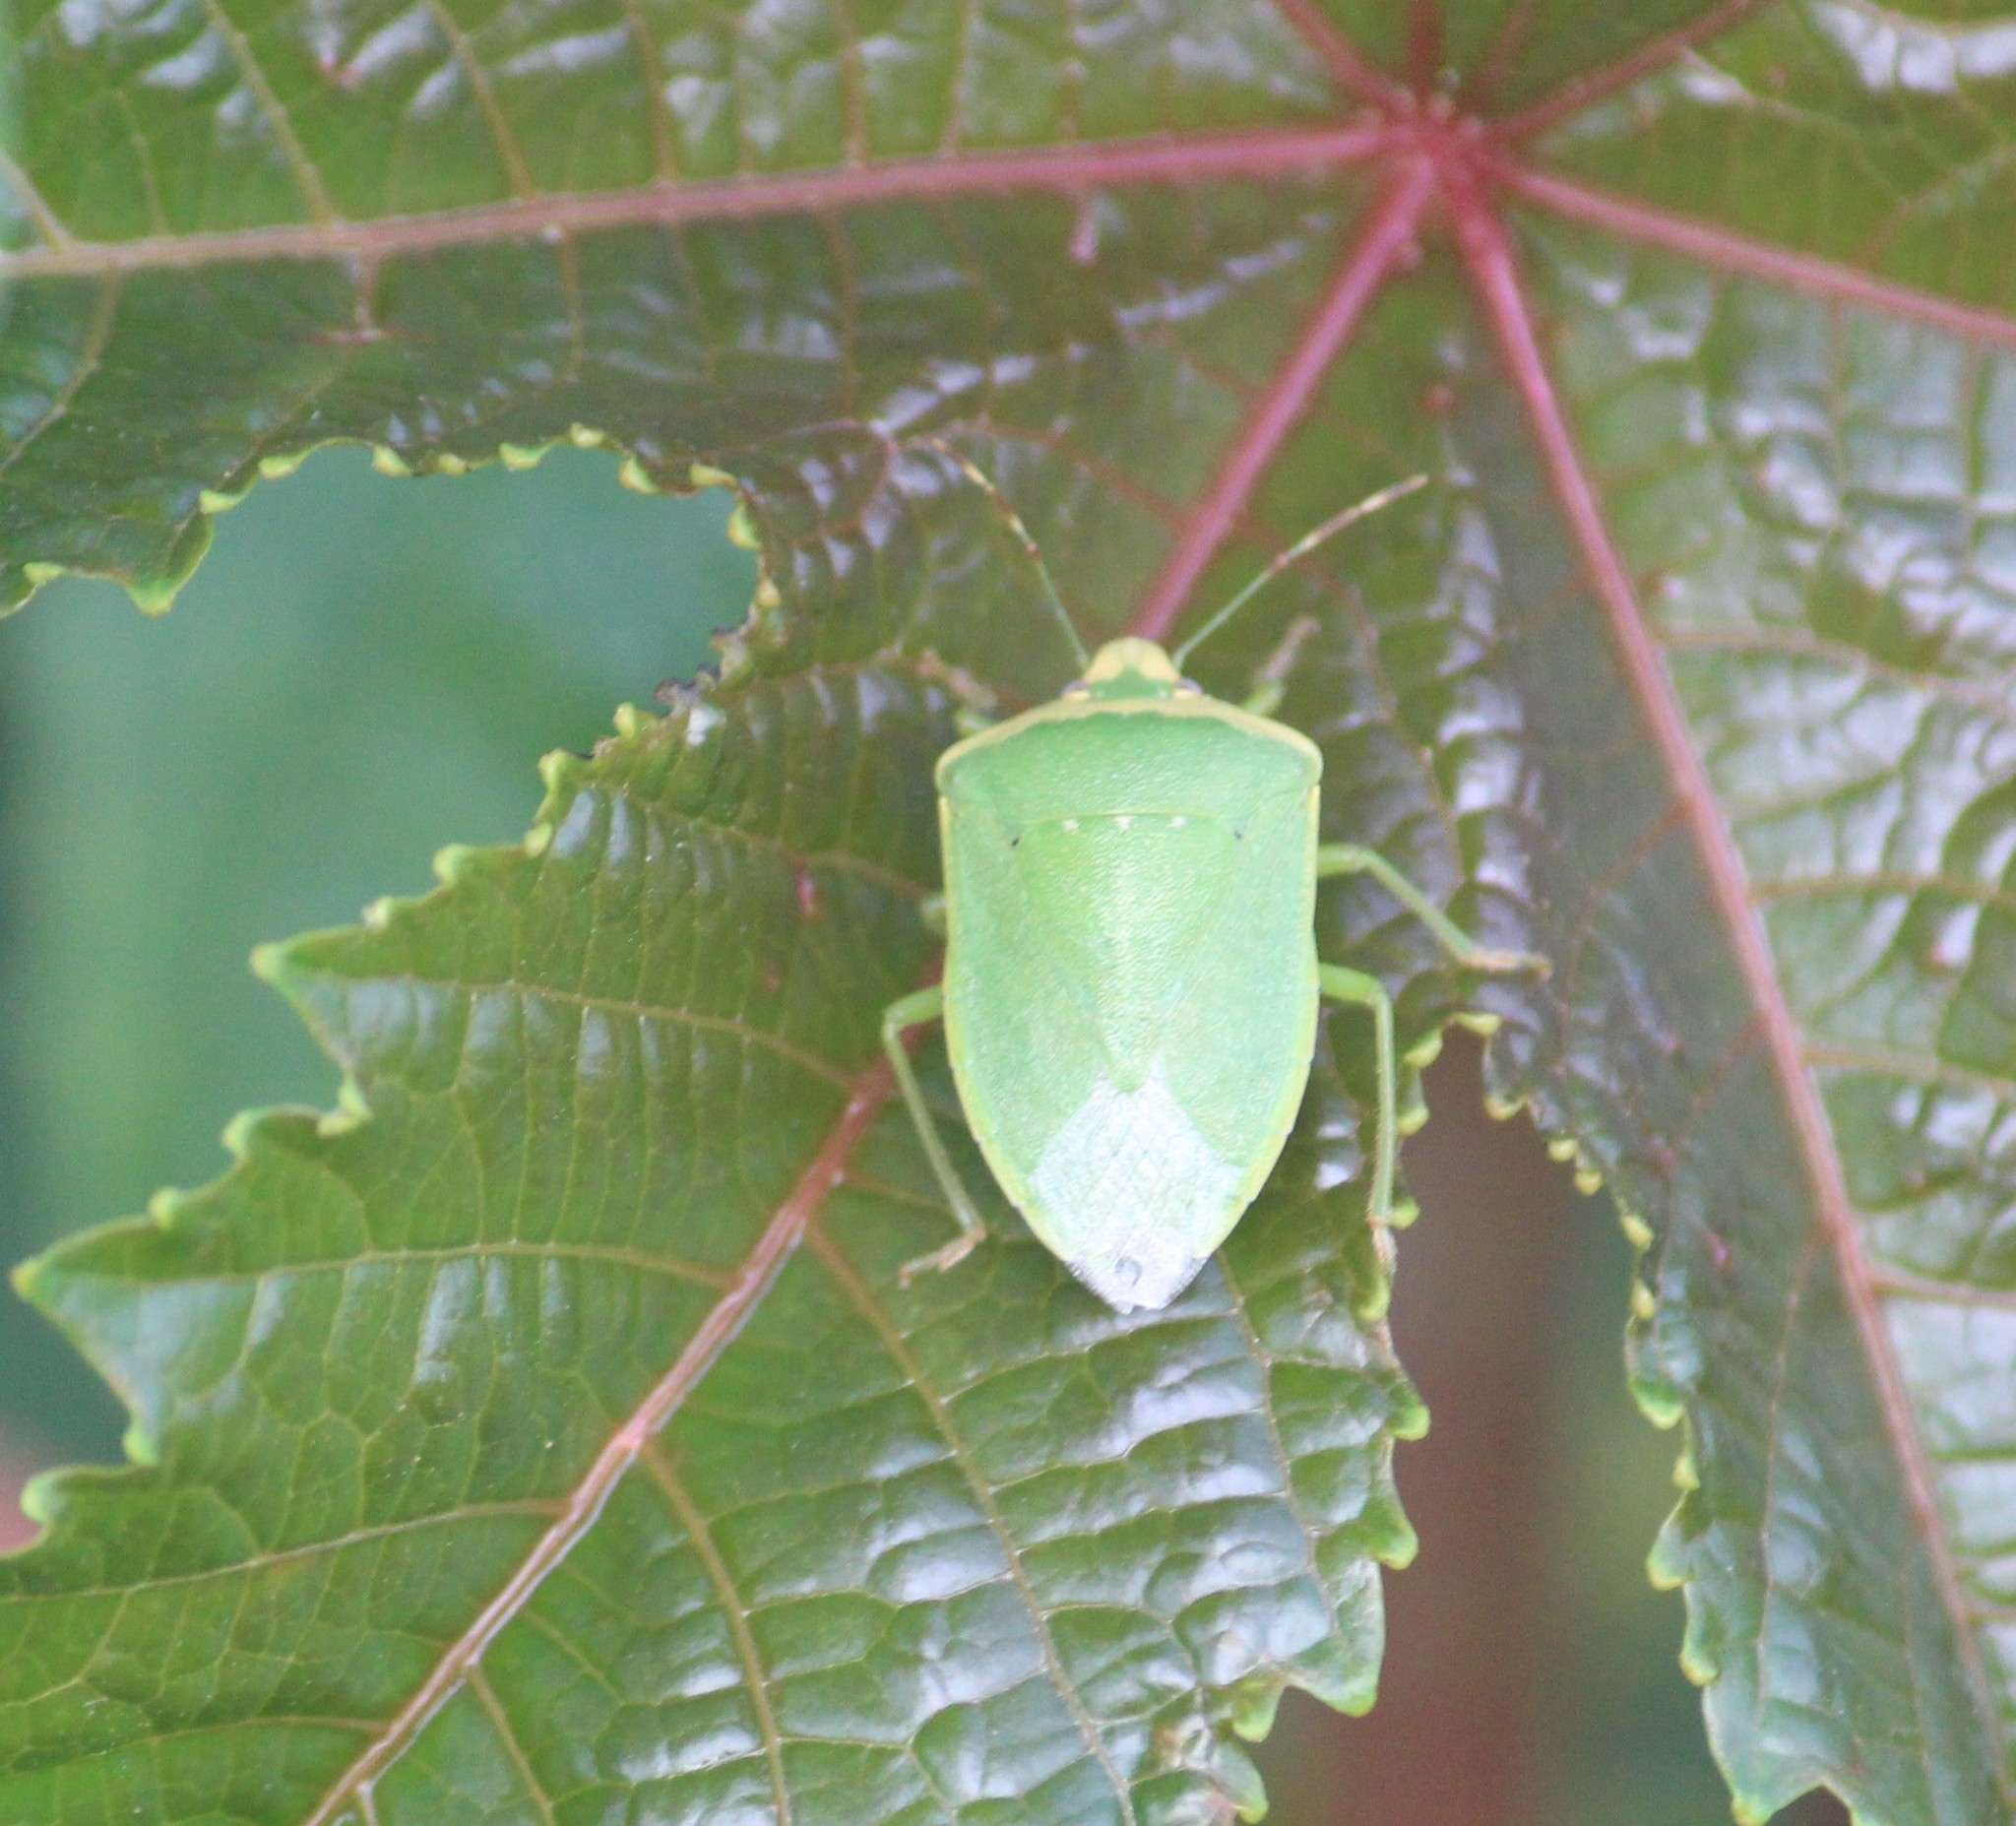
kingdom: Animalia
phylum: Arthropoda
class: Insecta
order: Hemiptera
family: Pentatomidae
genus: Nezara
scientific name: Nezara viridula
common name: Southern green stink bug
